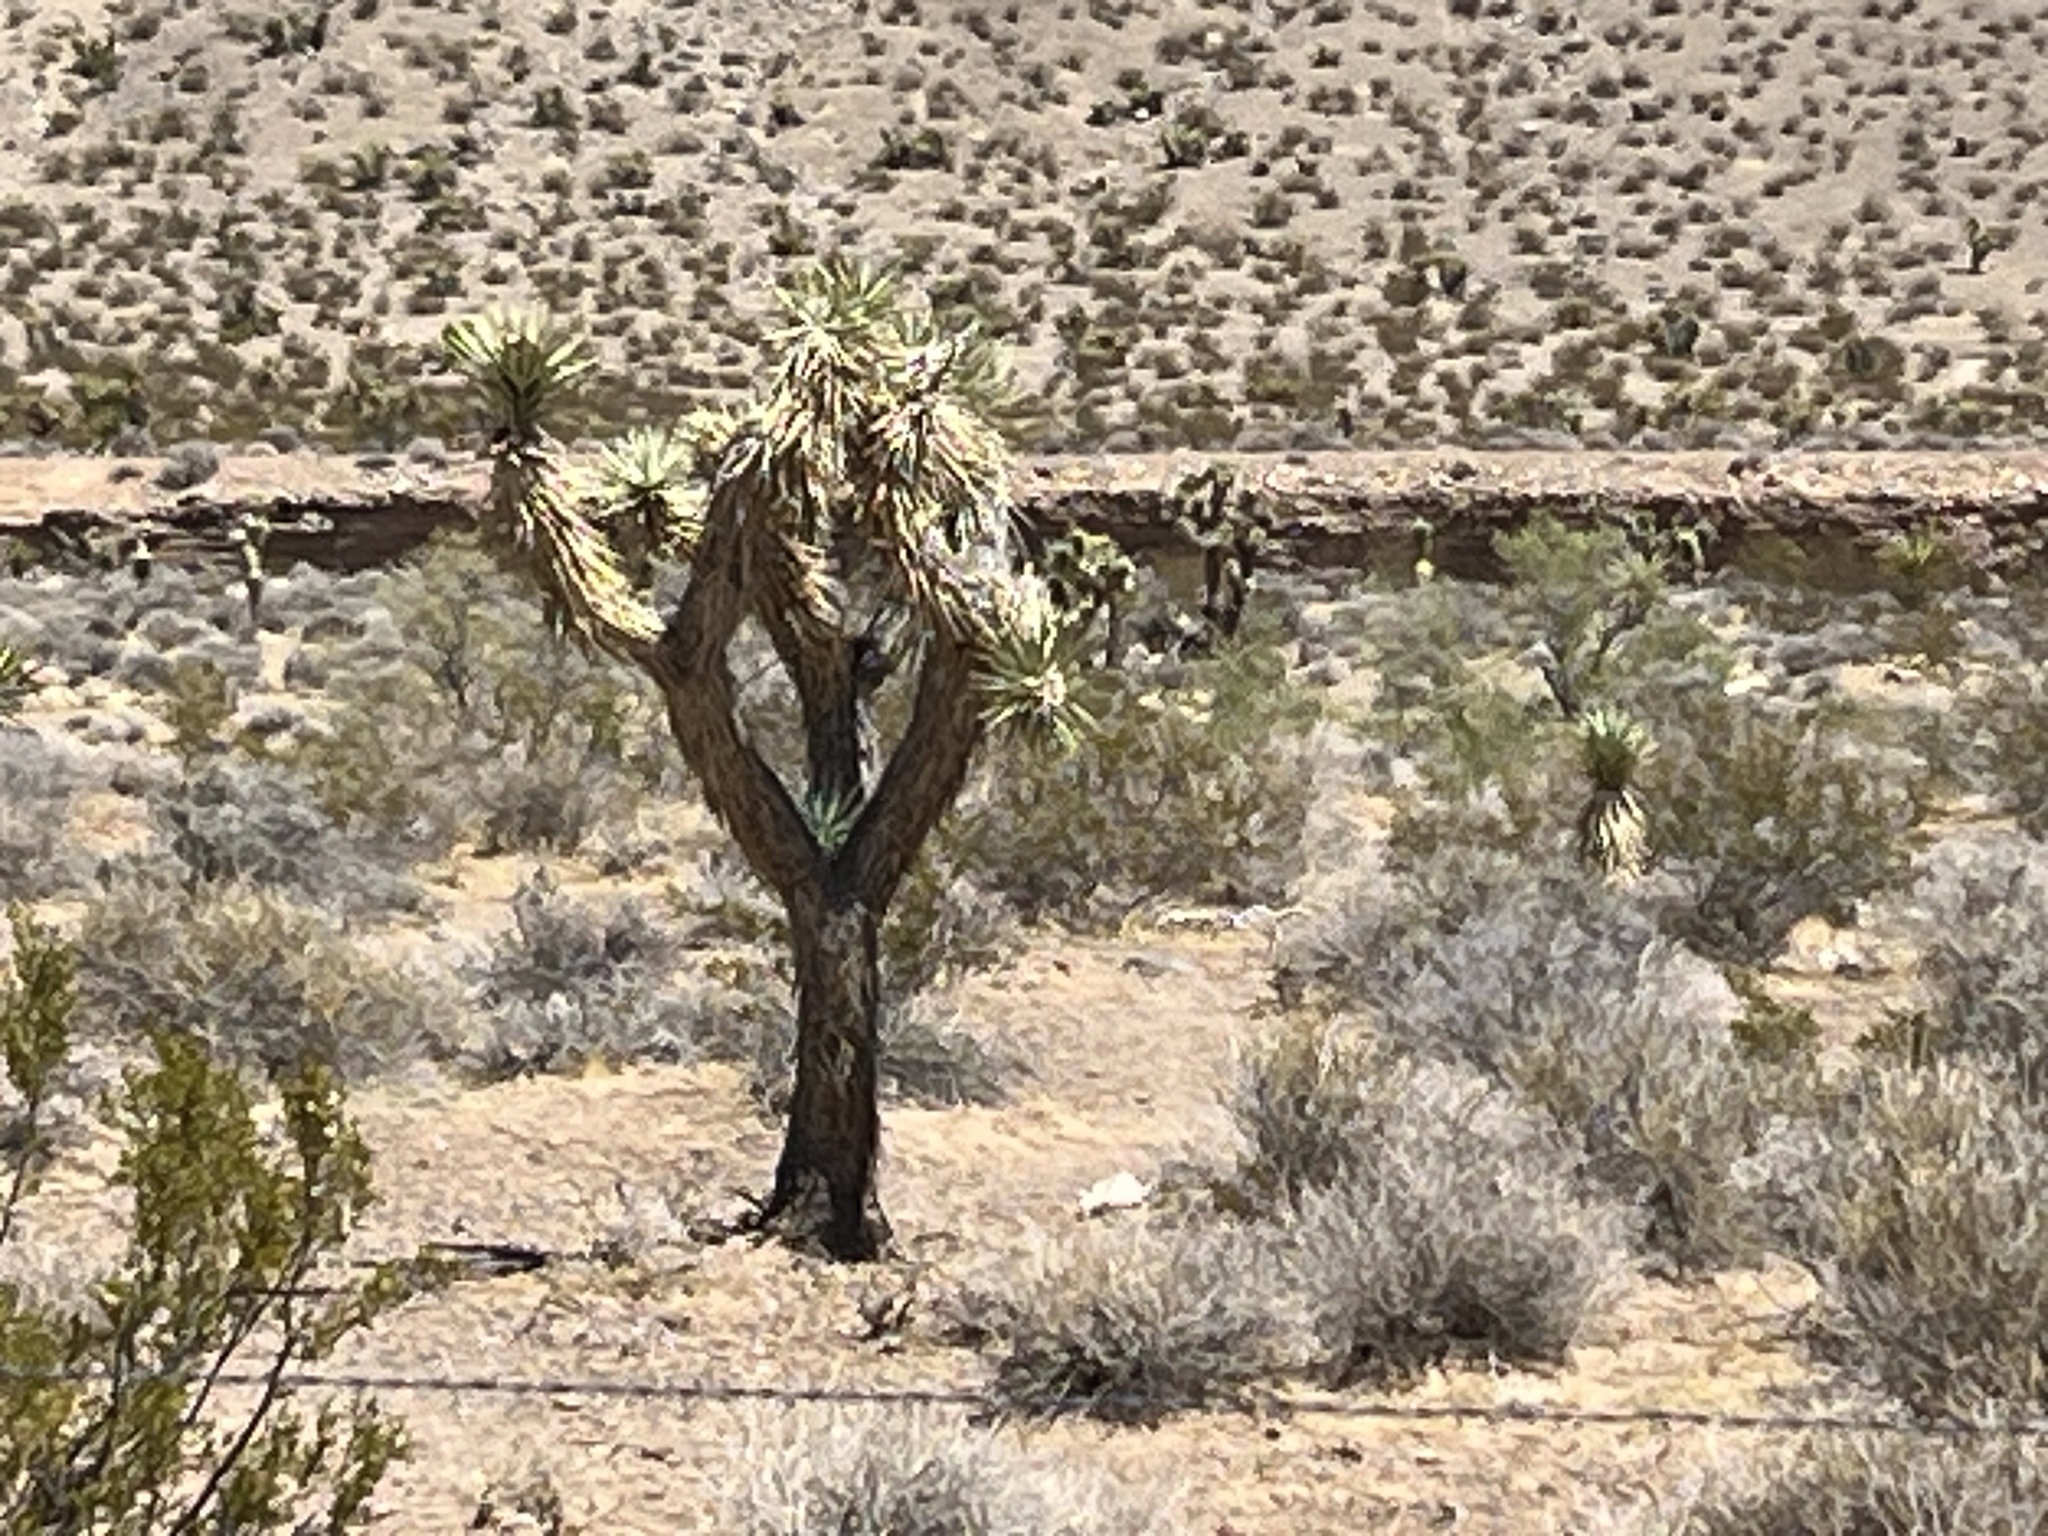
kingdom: Plantae
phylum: Tracheophyta
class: Liliopsida
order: Asparagales
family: Asparagaceae
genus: Yucca
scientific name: Yucca brevifolia
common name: Joshua tree
